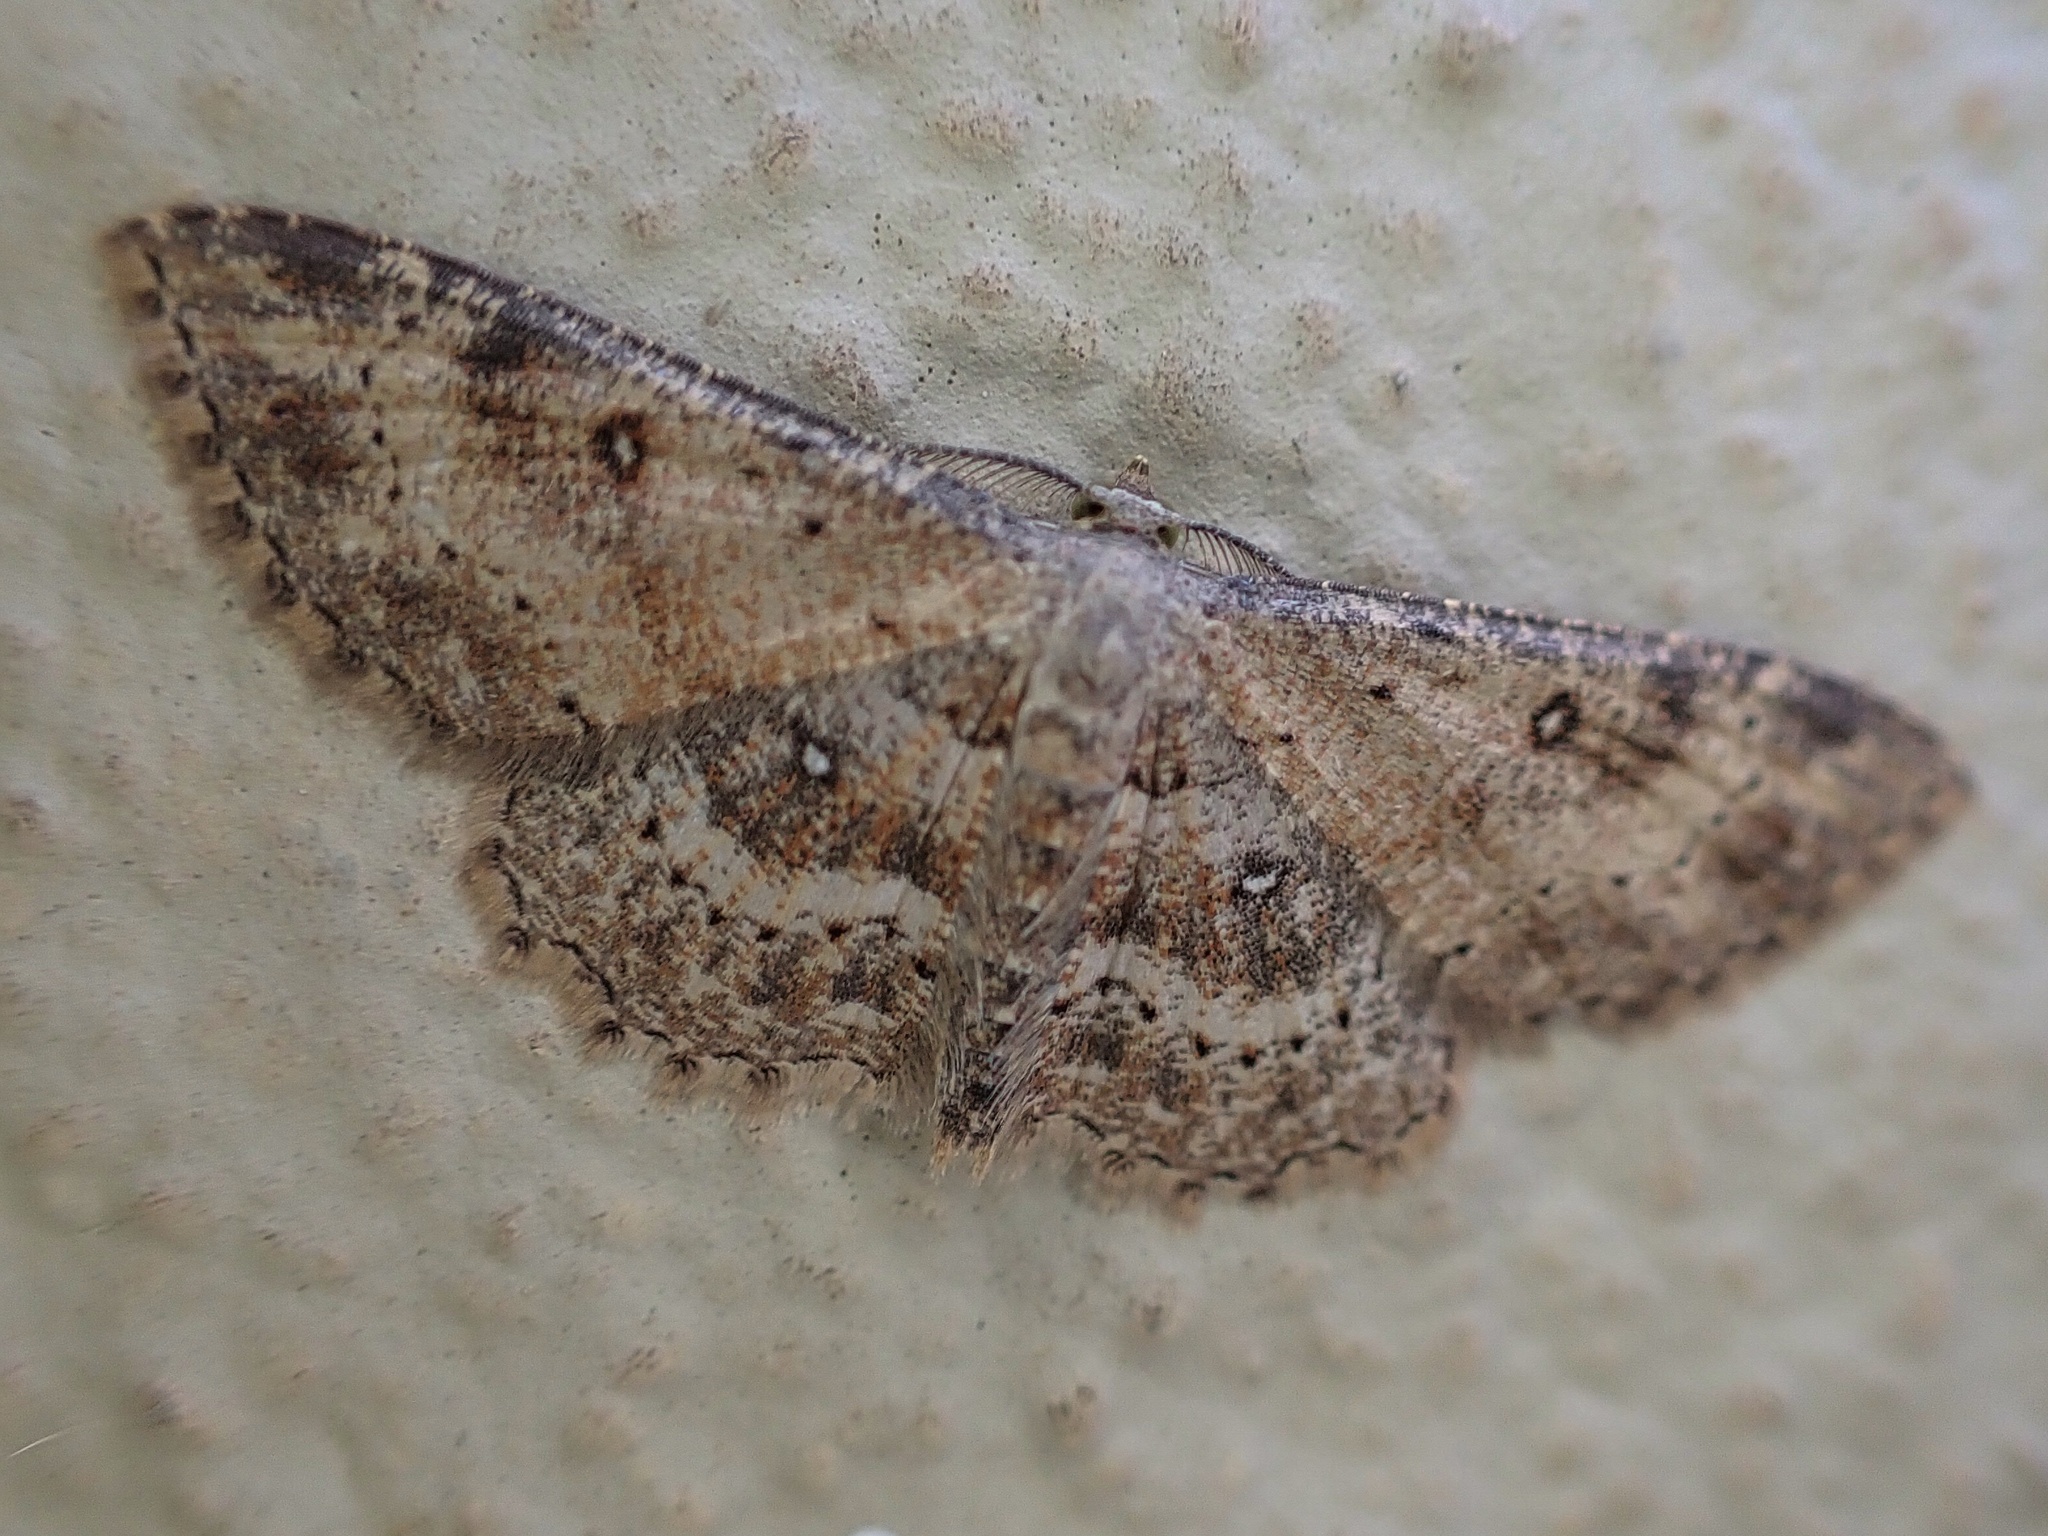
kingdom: Animalia
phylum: Arthropoda
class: Insecta
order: Lepidoptera
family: Geometridae
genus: Cyclophora
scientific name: Cyclophora nanaria
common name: Cankerworm
